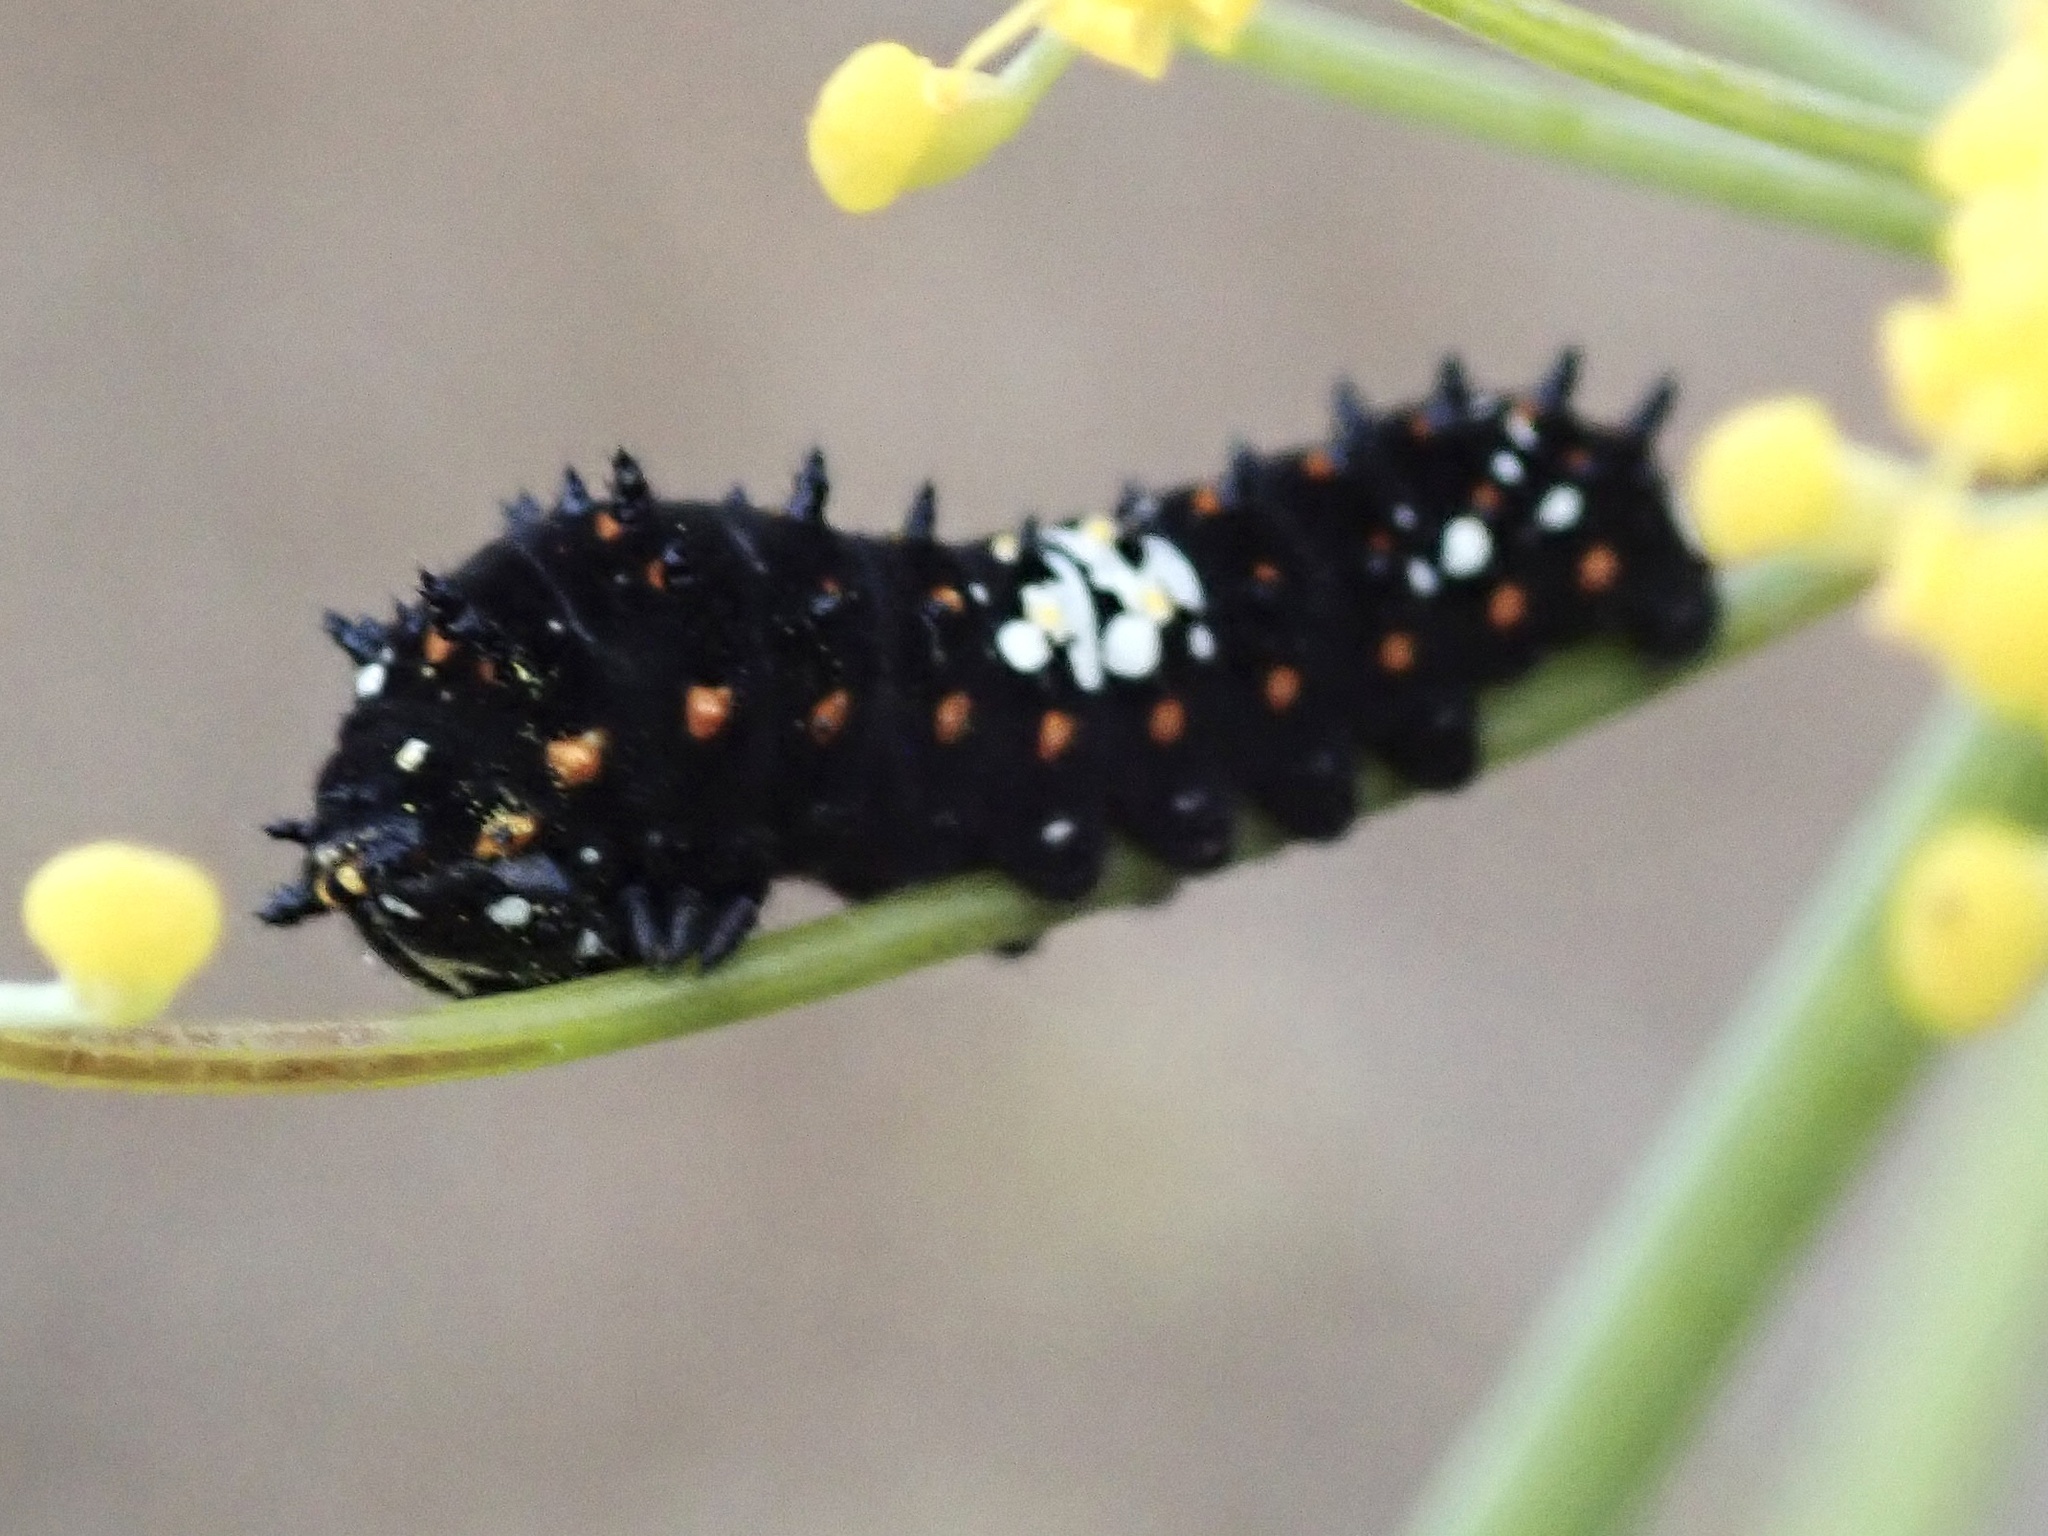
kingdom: Animalia
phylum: Arthropoda
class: Insecta
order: Lepidoptera
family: Papilionidae
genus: Papilio
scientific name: Papilio zelicaon
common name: Anise swallowtail
